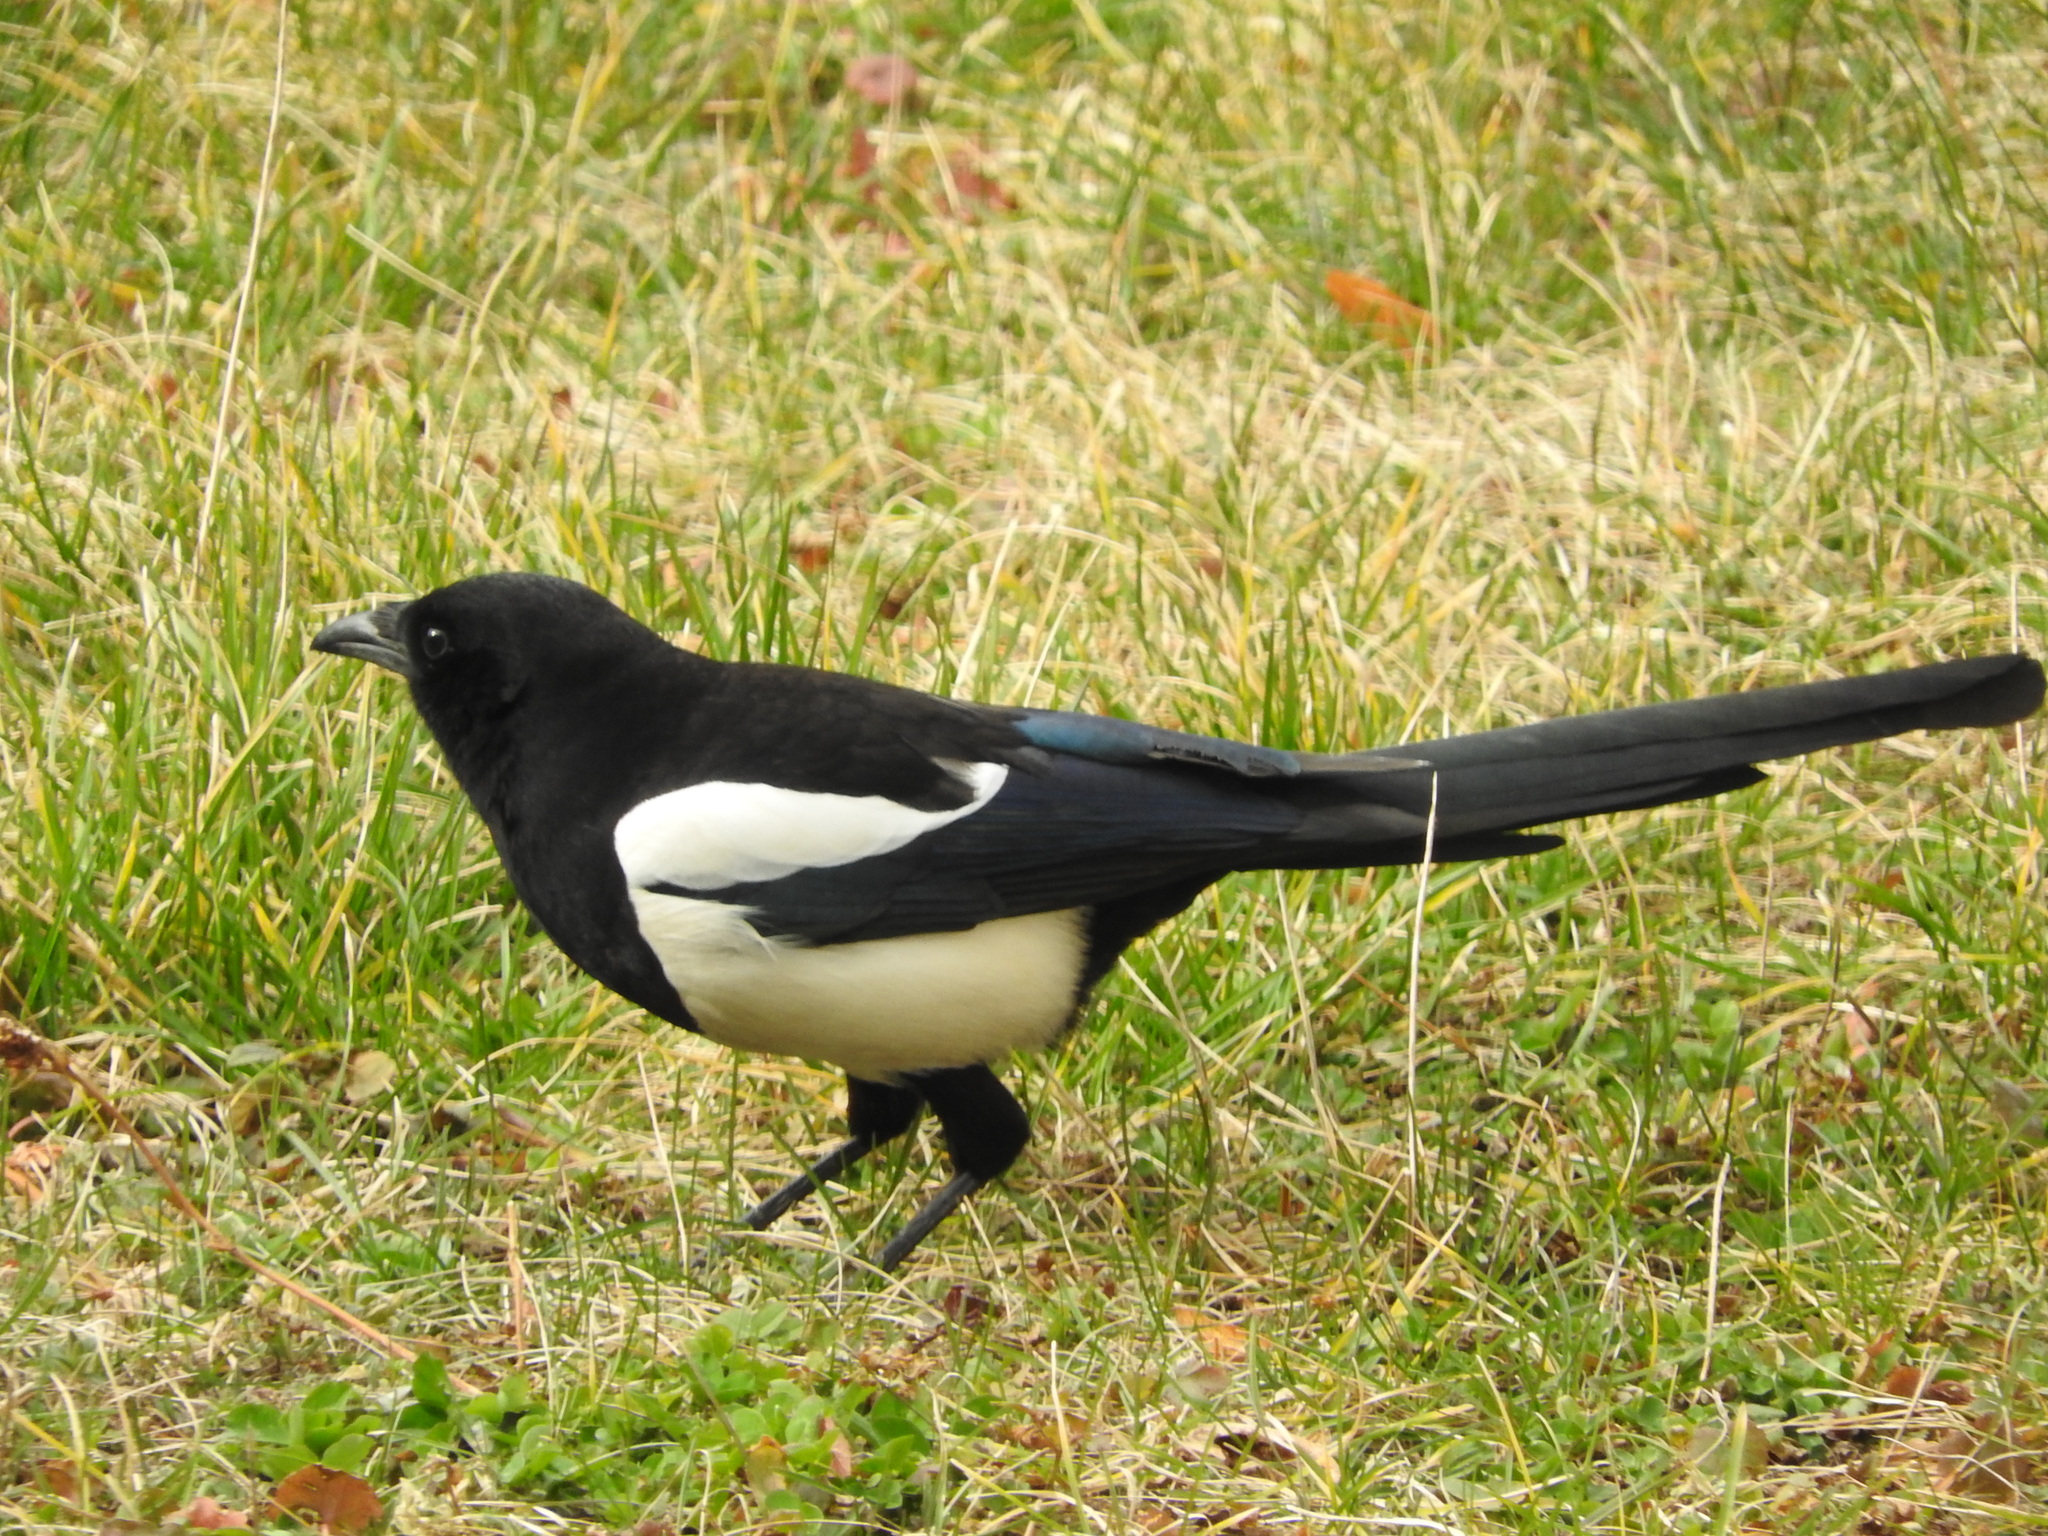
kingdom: Animalia
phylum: Chordata
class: Aves
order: Passeriformes
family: Corvidae
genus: Pica
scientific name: Pica pica
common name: Eurasian magpie
